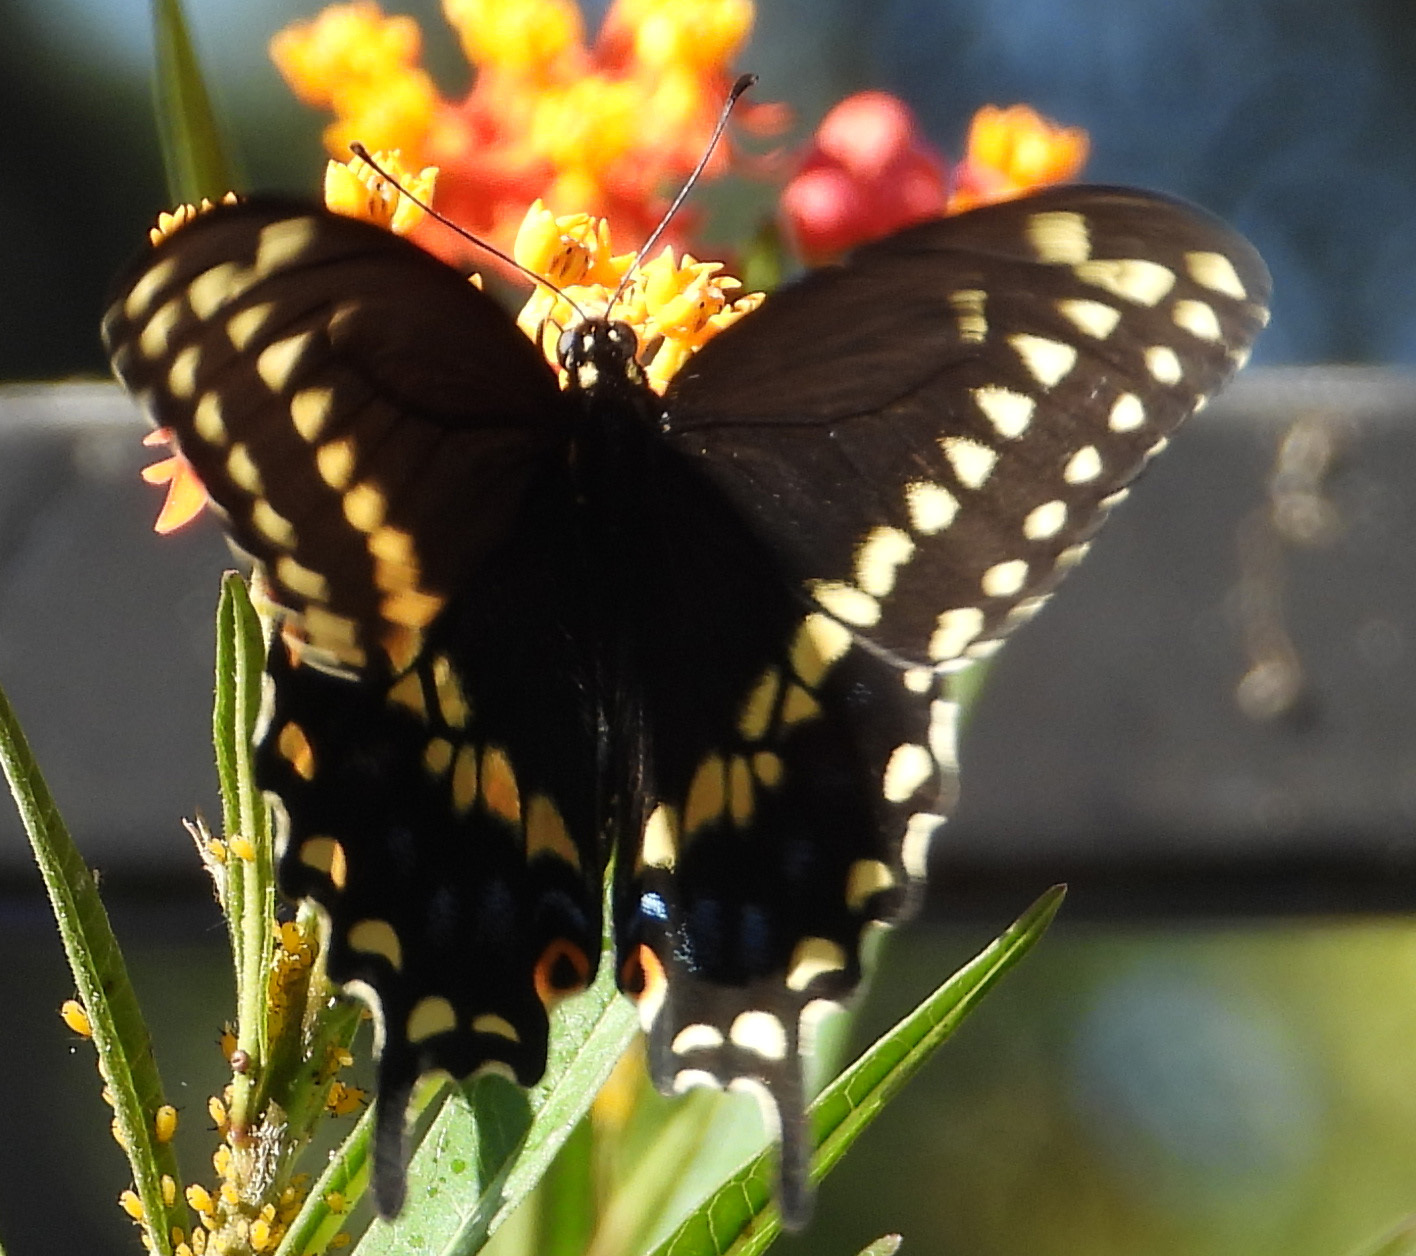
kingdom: Animalia
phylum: Arthropoda
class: Insecta
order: Lepidoptera
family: Papilionidae
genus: Papilio
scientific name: Papilio polyxenes
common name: Black swallowtail
